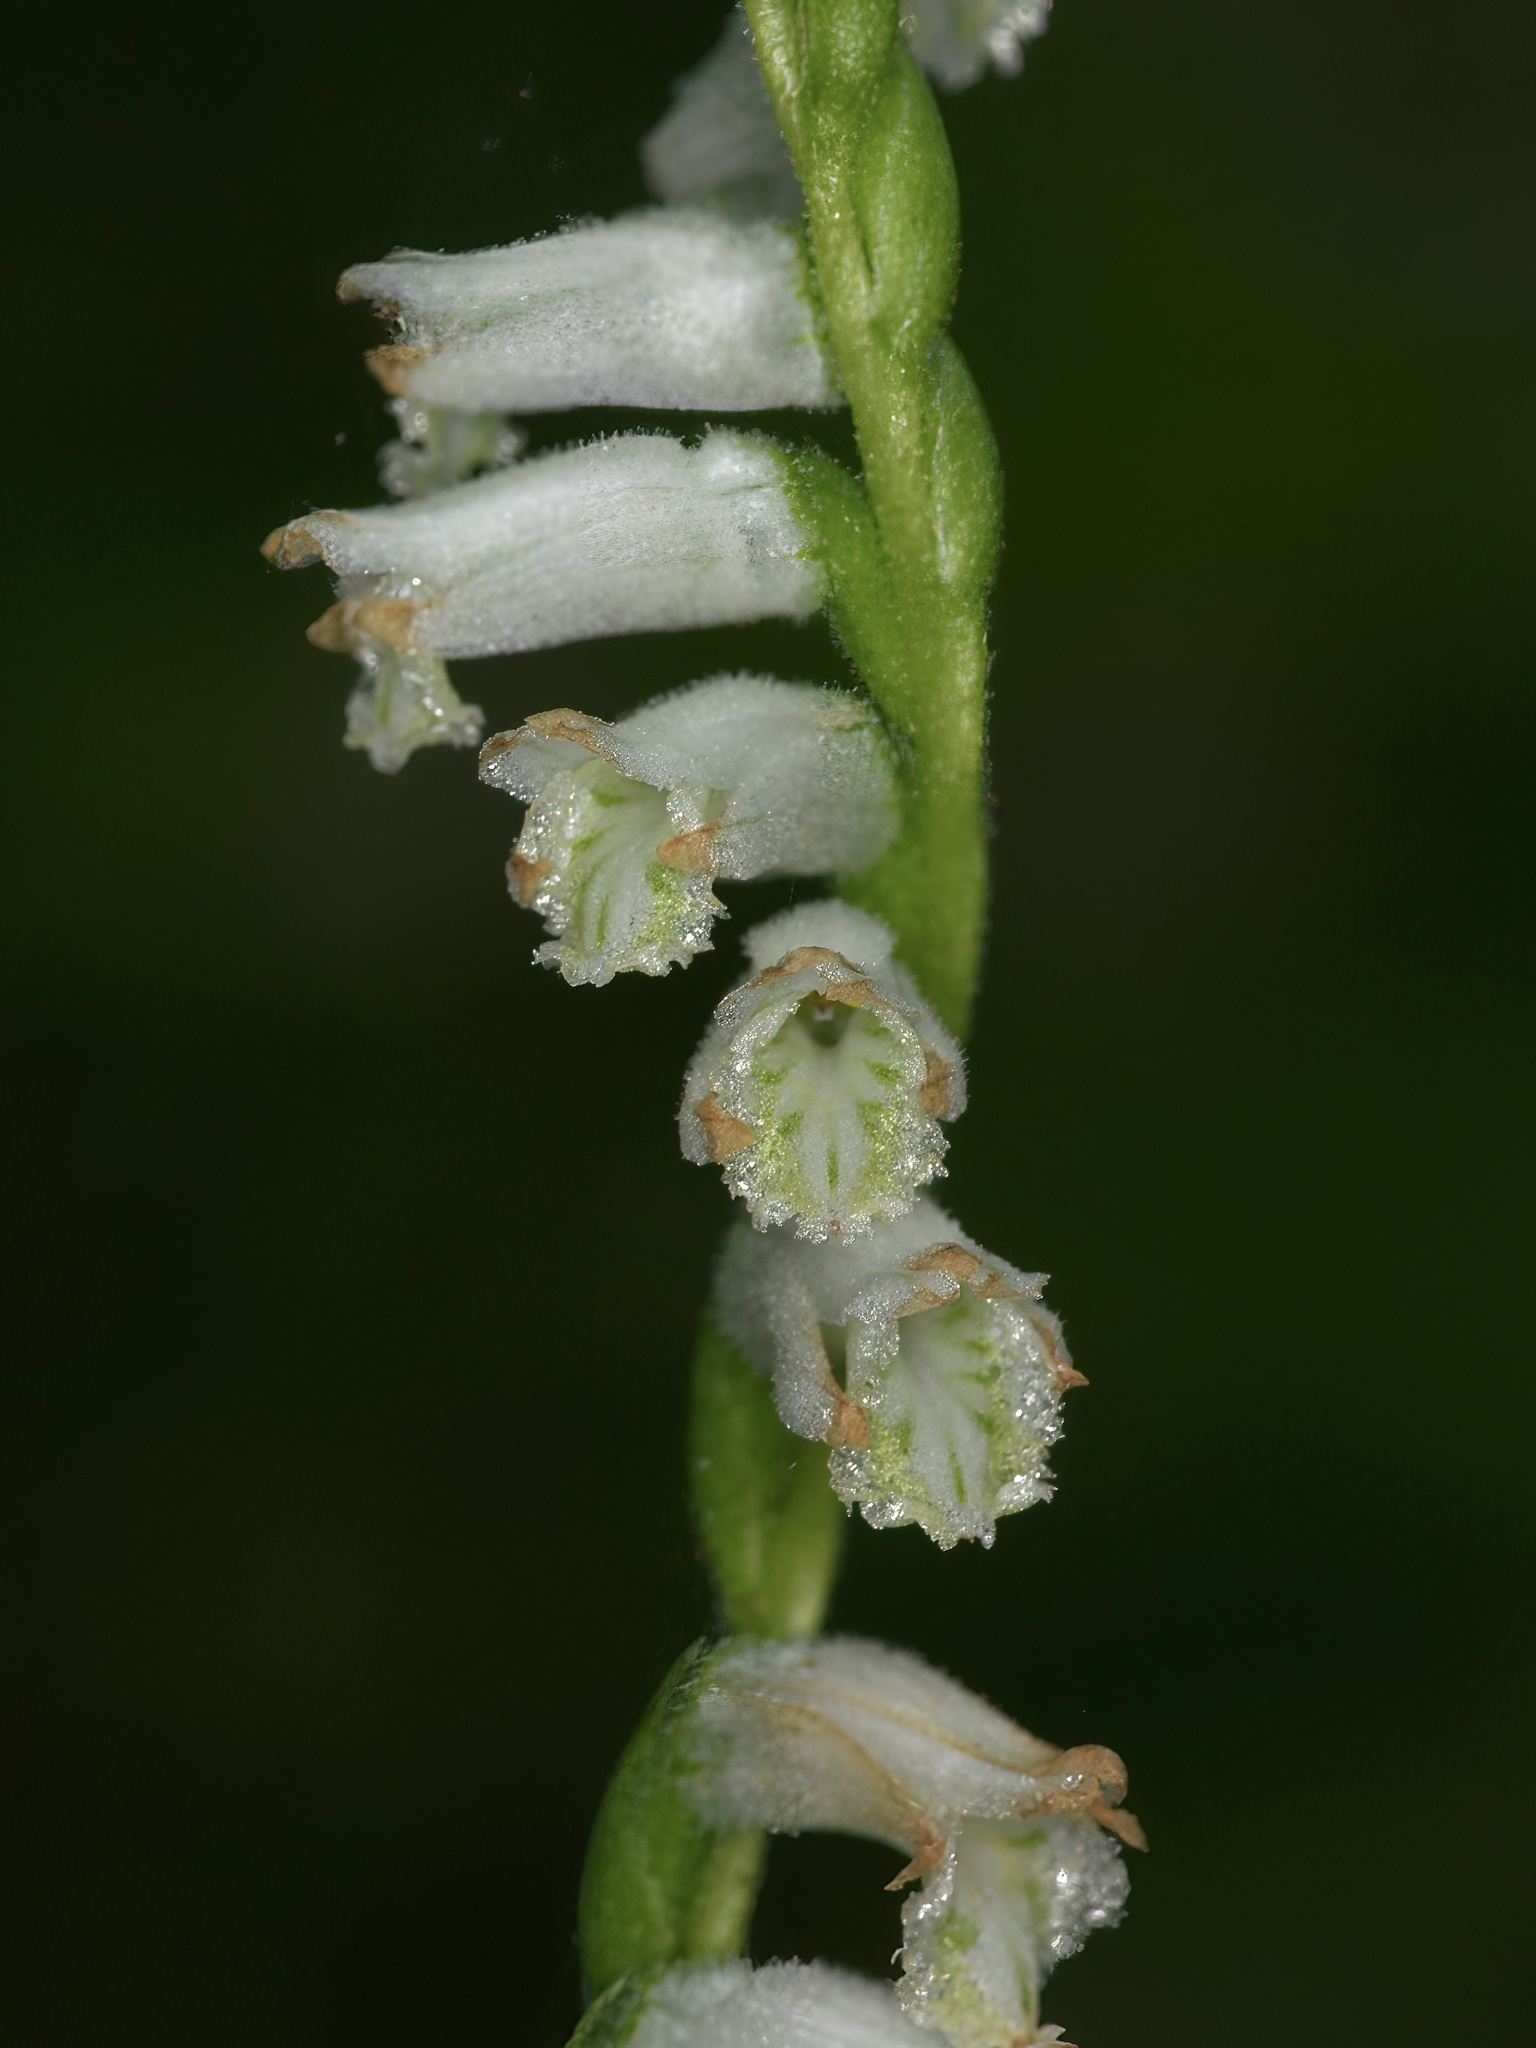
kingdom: Plantae
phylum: Tracheophyta
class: Liliopsida
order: Asparagales
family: Orchidaceae
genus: Spiranthes
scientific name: Spiranthes praecox
